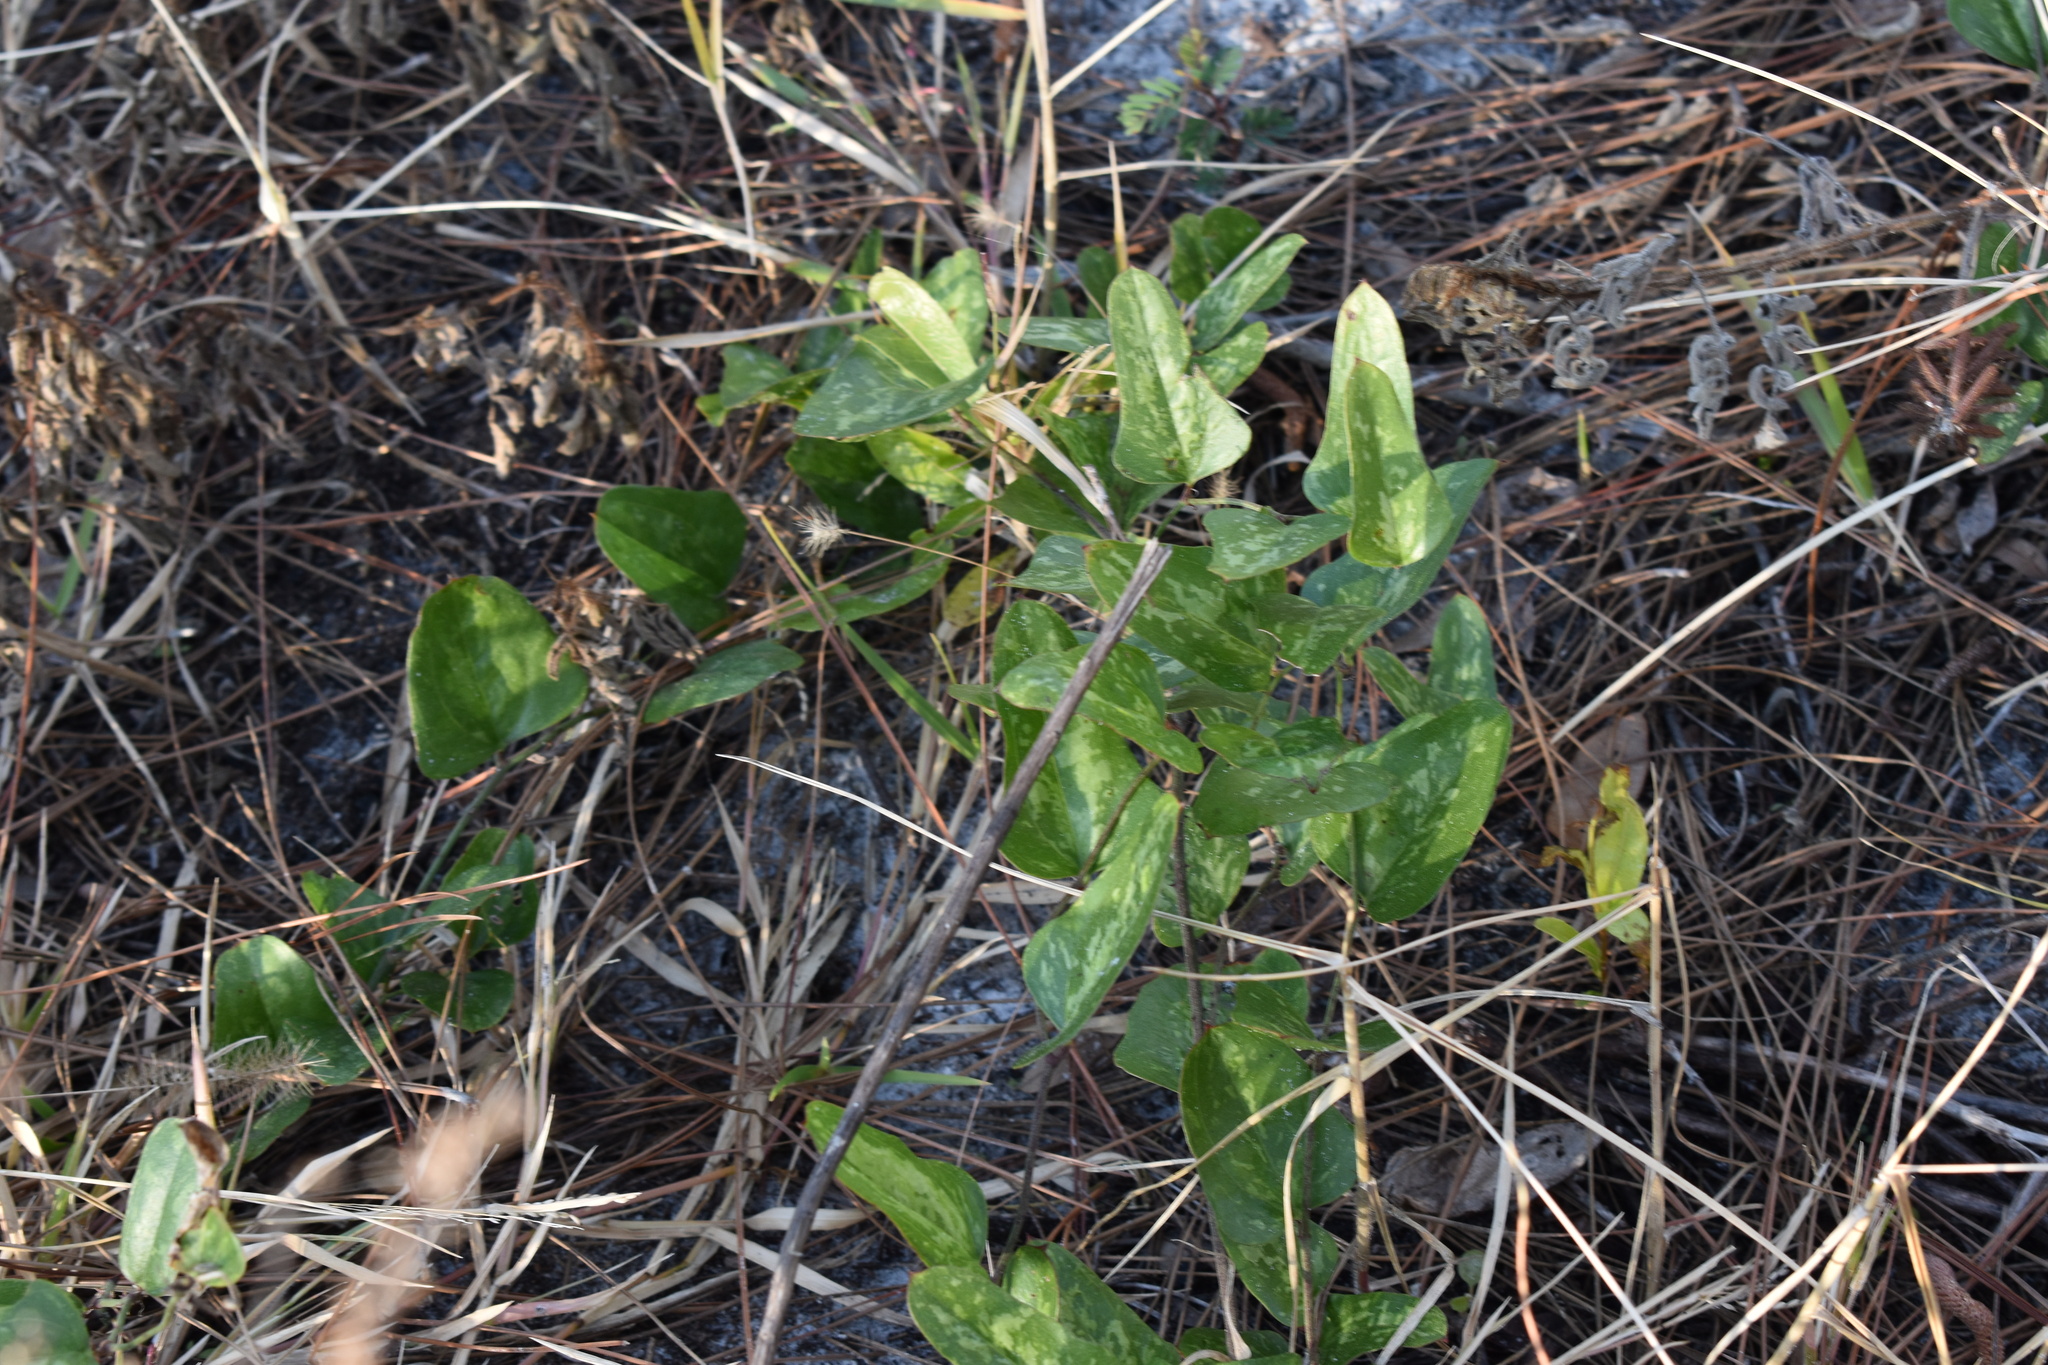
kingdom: Plantae
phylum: Tracheophyta
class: Liliopsida
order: Liliales
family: Smilacaceae
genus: Smilax
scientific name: Smilax bona-nox
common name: Catbrier
